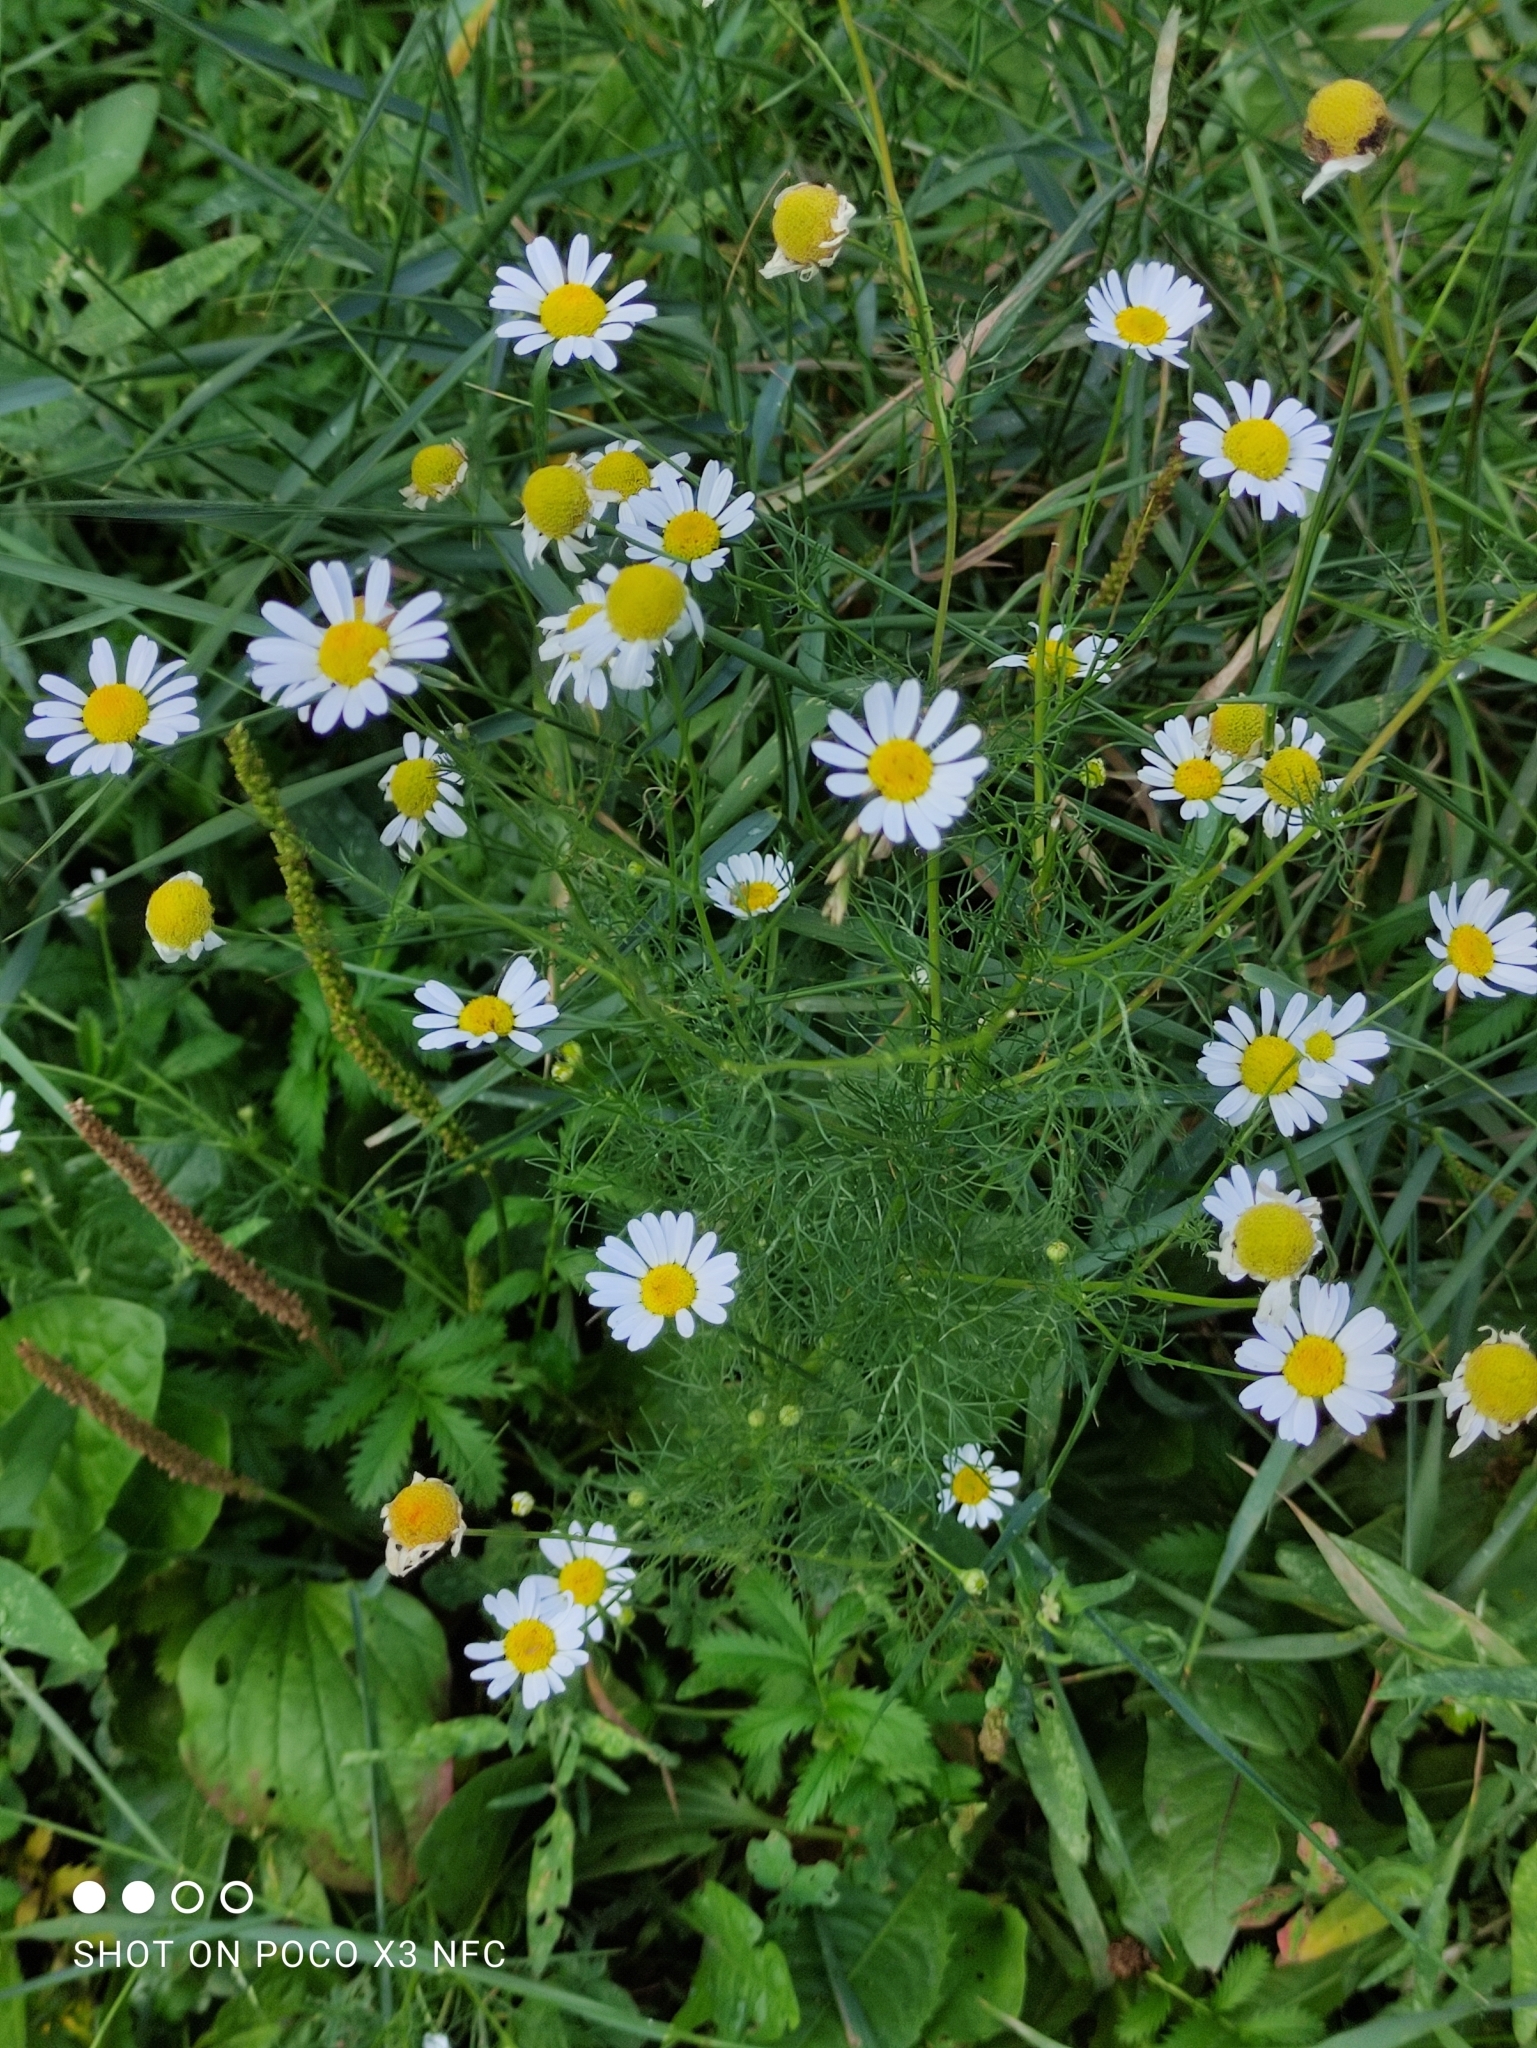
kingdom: Plantae
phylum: Tracheophyta
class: Magnoliopsida
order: Asterales
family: Asteraceae
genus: Tripleurospermum
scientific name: Tripleurospermum inodorum
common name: Scentless mayweed
